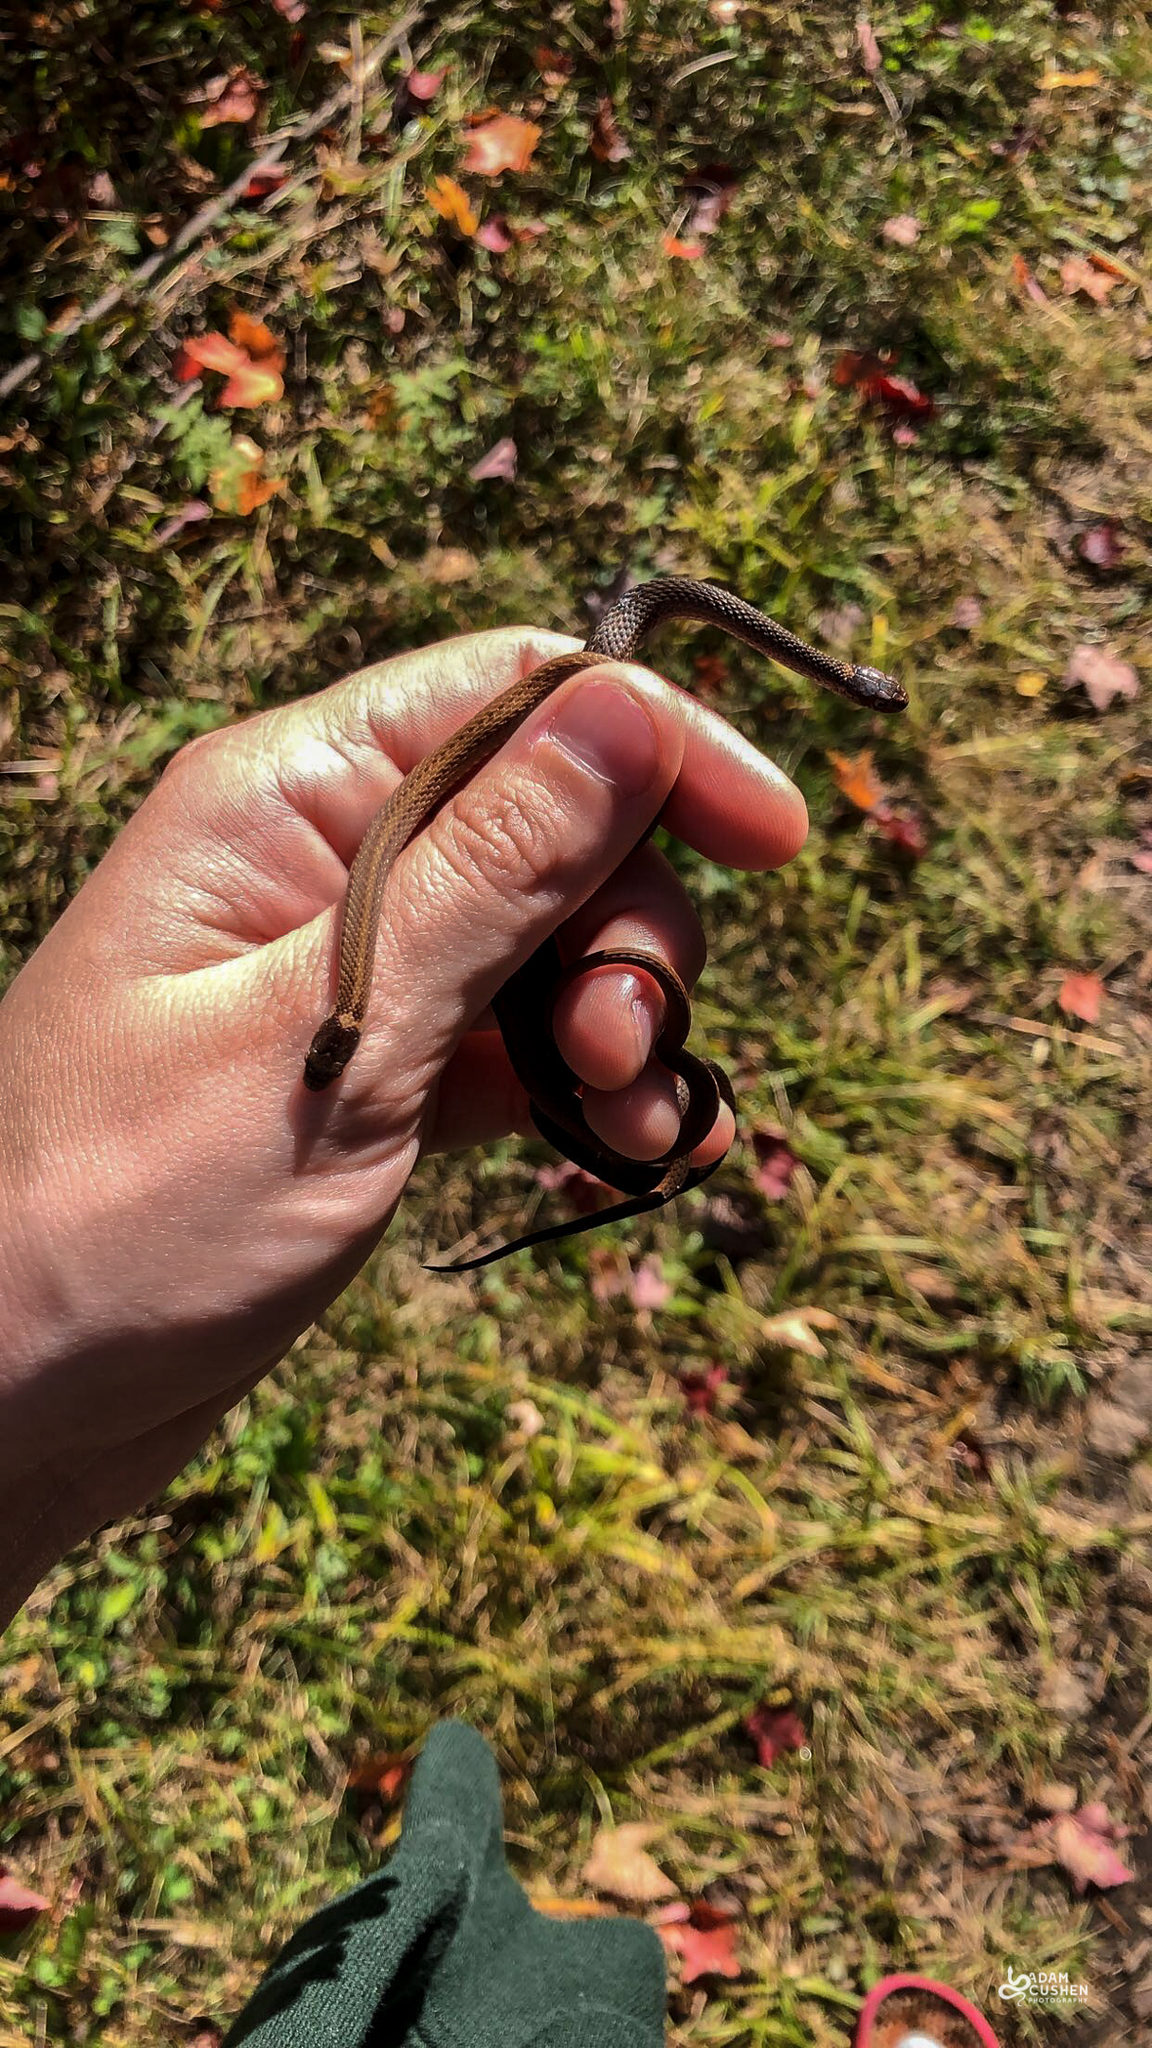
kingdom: Animalia
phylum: Chordata
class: Squamata
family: Colubridae
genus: Storeria
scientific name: Storeria occipitomaculata
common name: Redbelly snake
